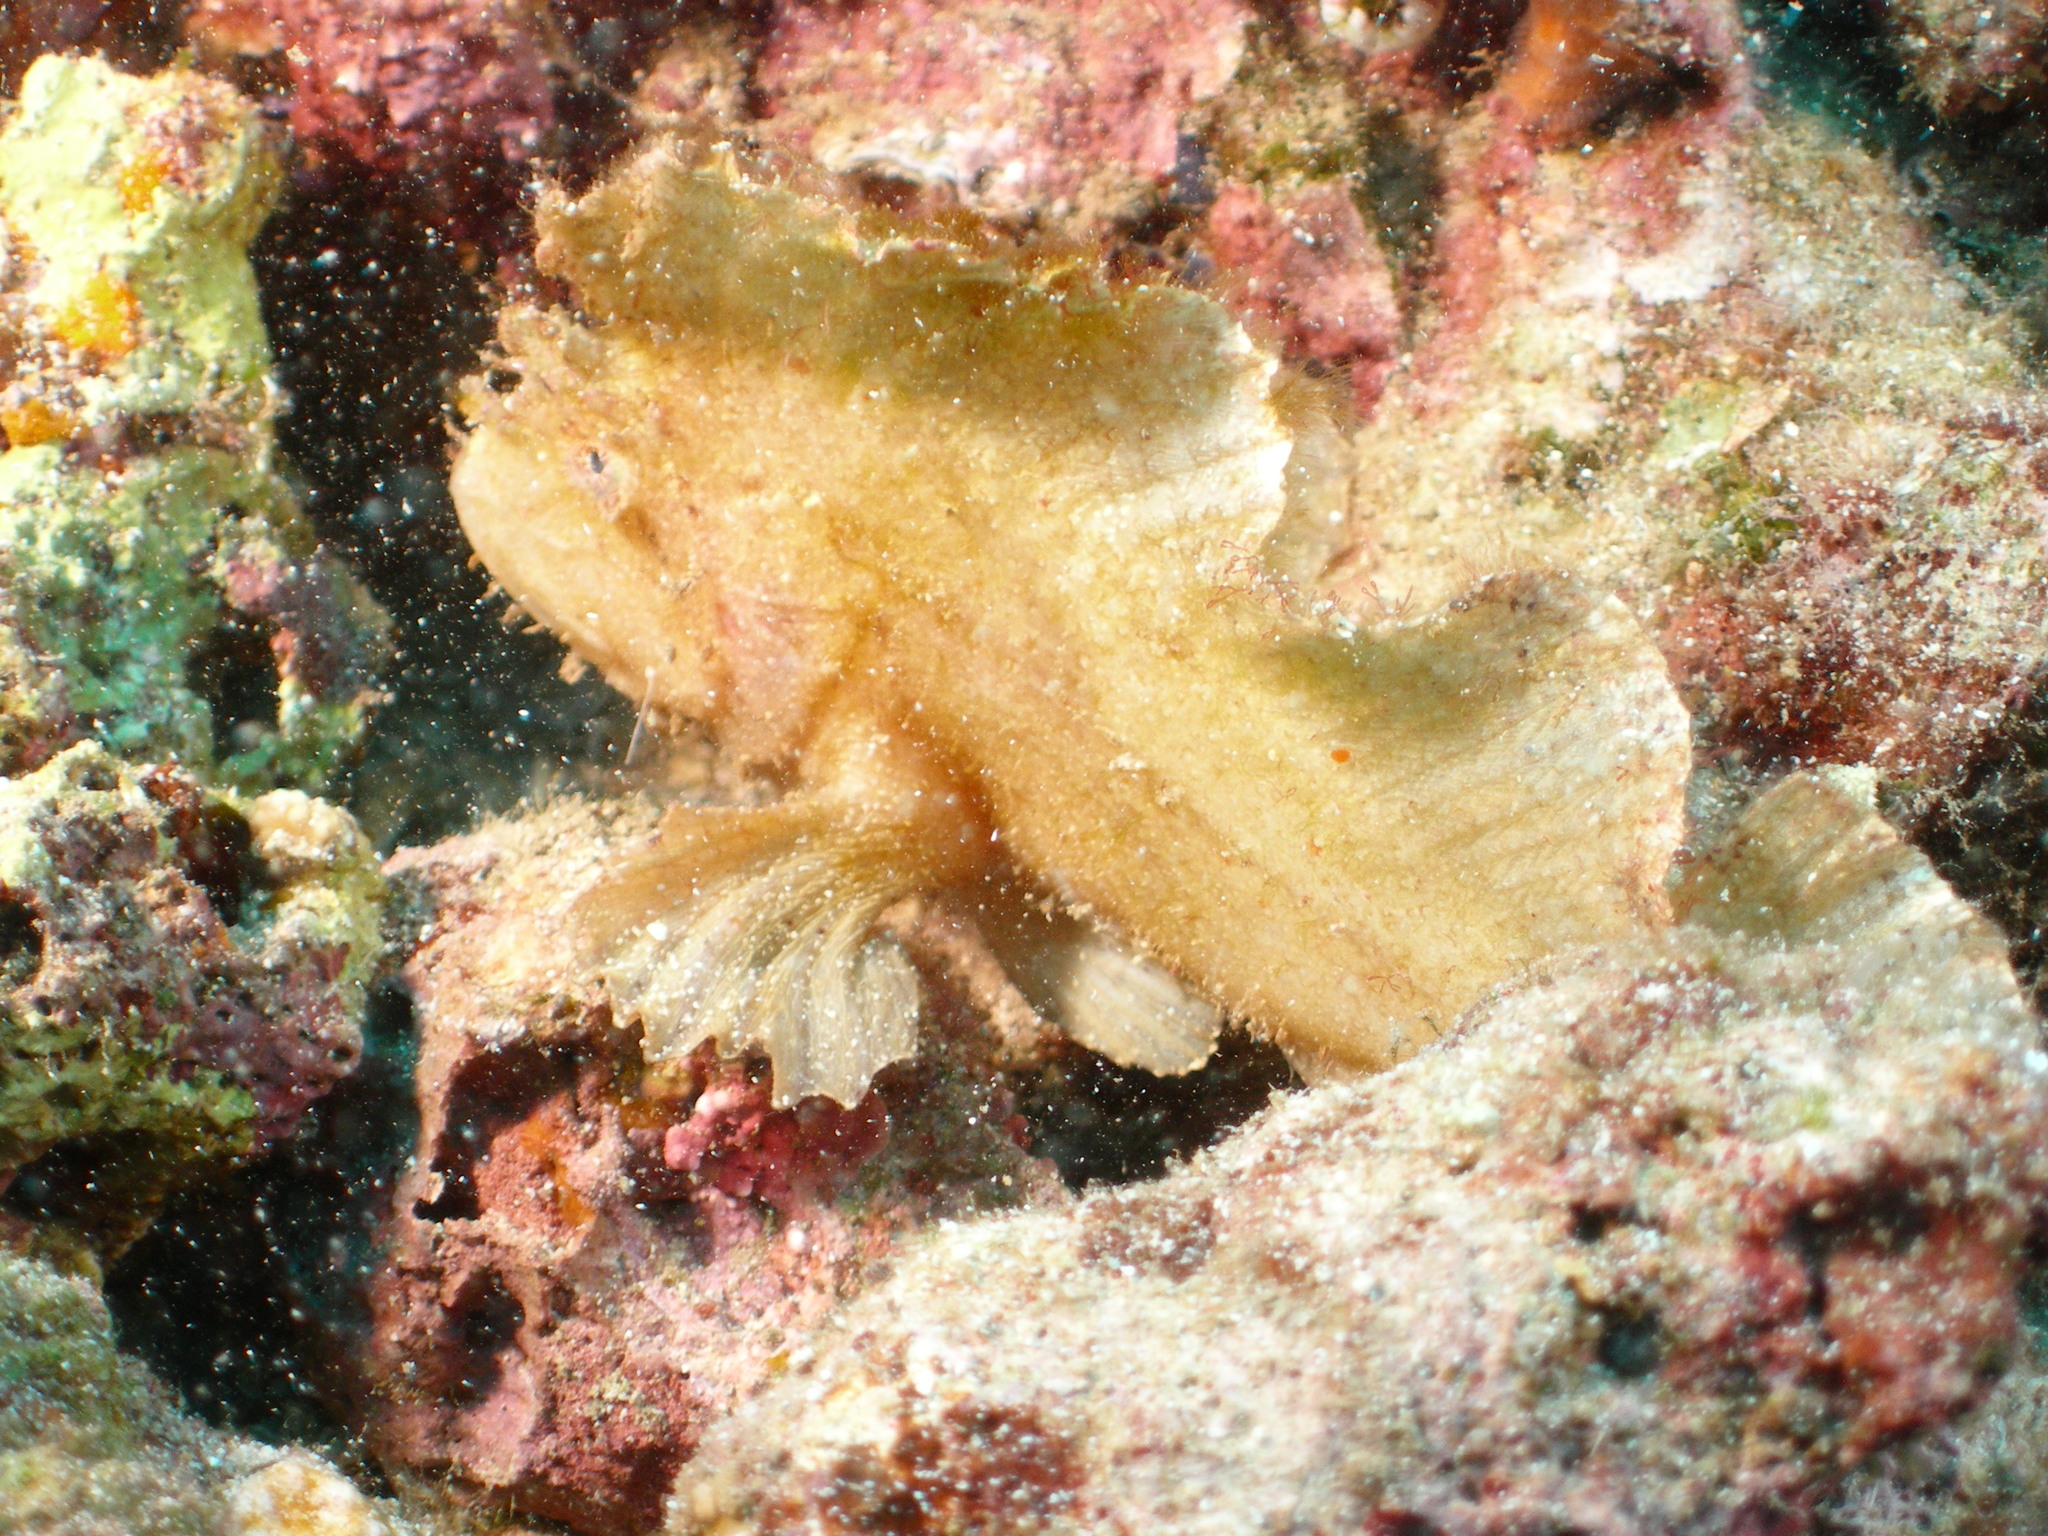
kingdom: Animalia
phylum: Chordata
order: Scorpaeniformes
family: Scorpaenidae
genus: Taenianotus
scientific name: Taenianotus triacanthus
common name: Leaf scorpionfish
